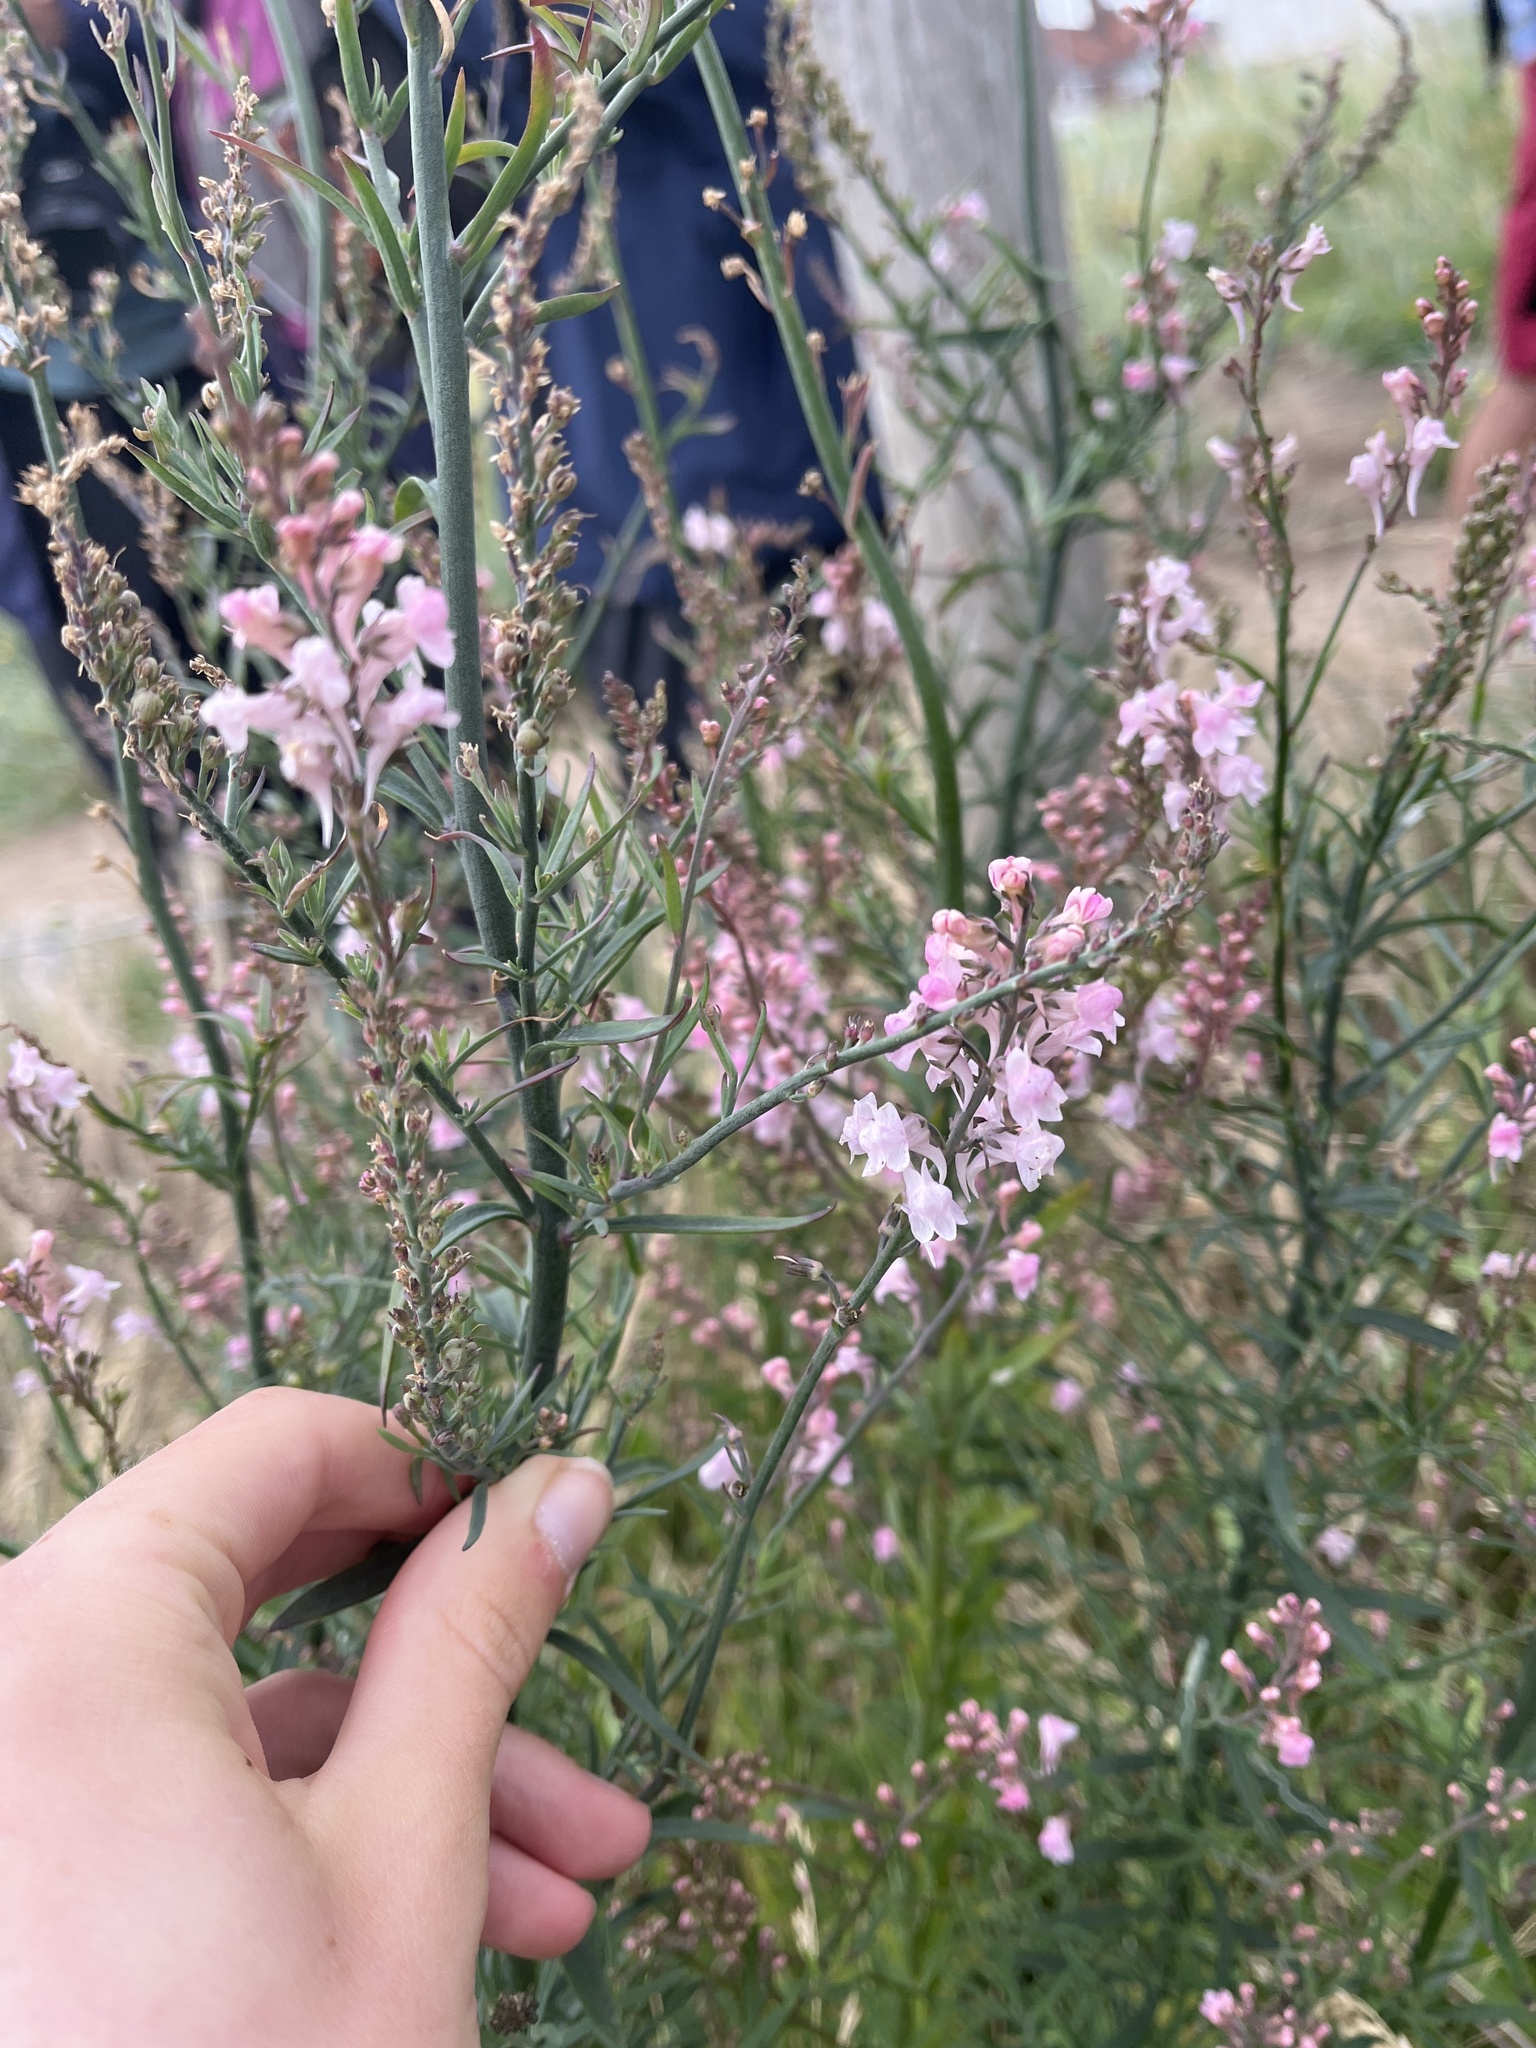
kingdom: Plantae
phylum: Tracheophyta
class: Magnoliopsida
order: Lamiales
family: Plantaginaceae
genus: Linaria
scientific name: Linaria purpurea
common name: Purple toadflax
